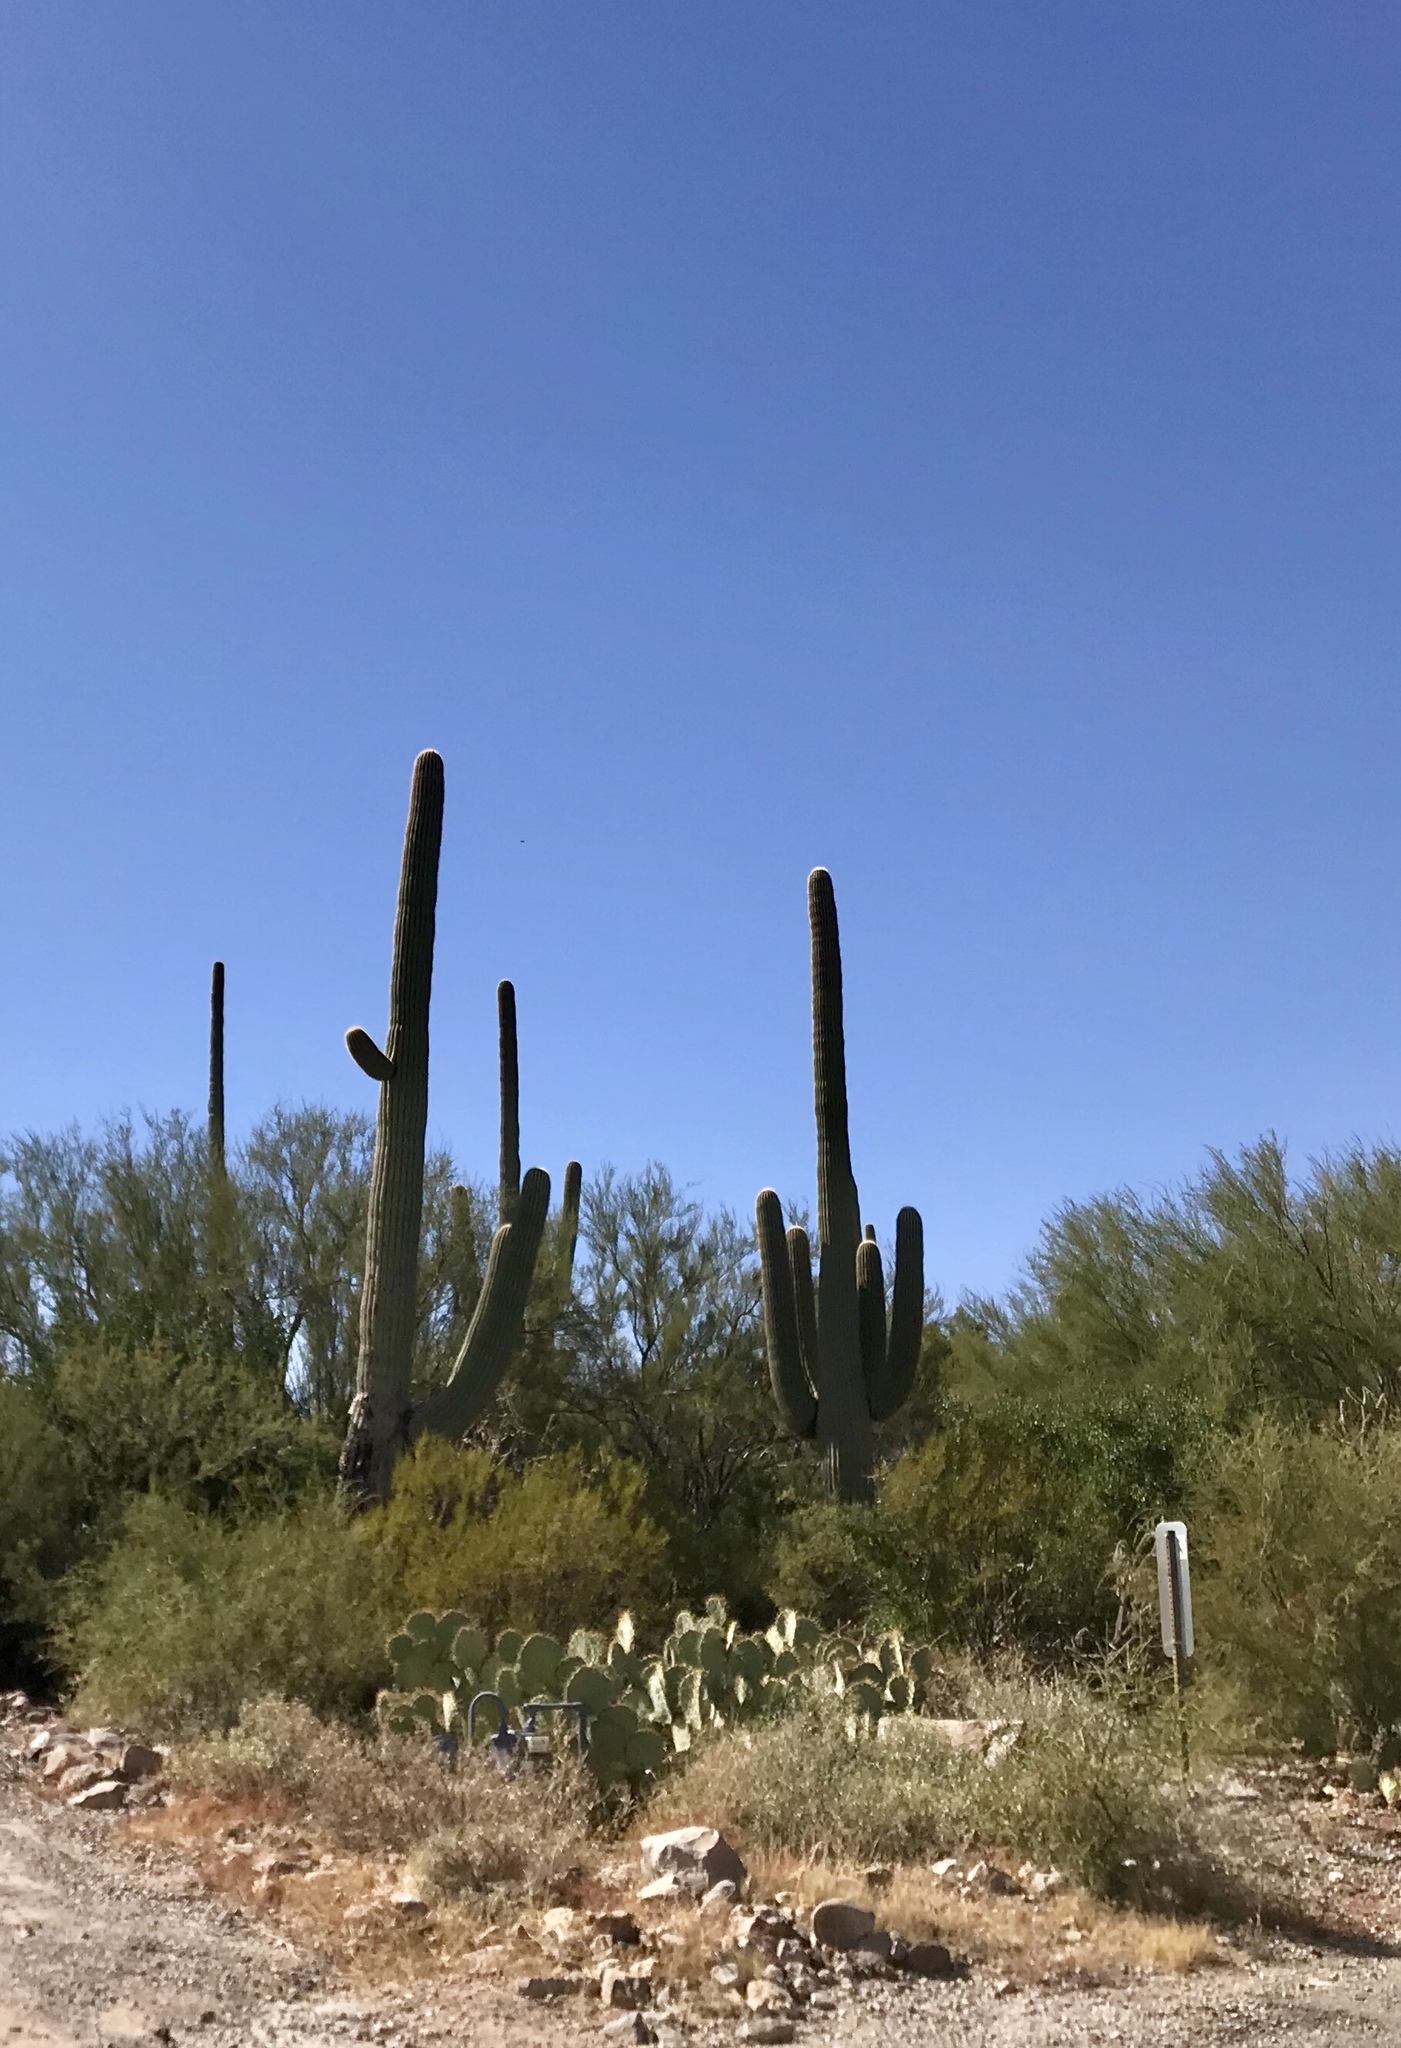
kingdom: Plantae
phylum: Tracheophyta
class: Magnoliopsida
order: Caryophyllales
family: Cactaceae
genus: Carnegiea
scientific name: Carnegiea gigantea
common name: Saguaro
